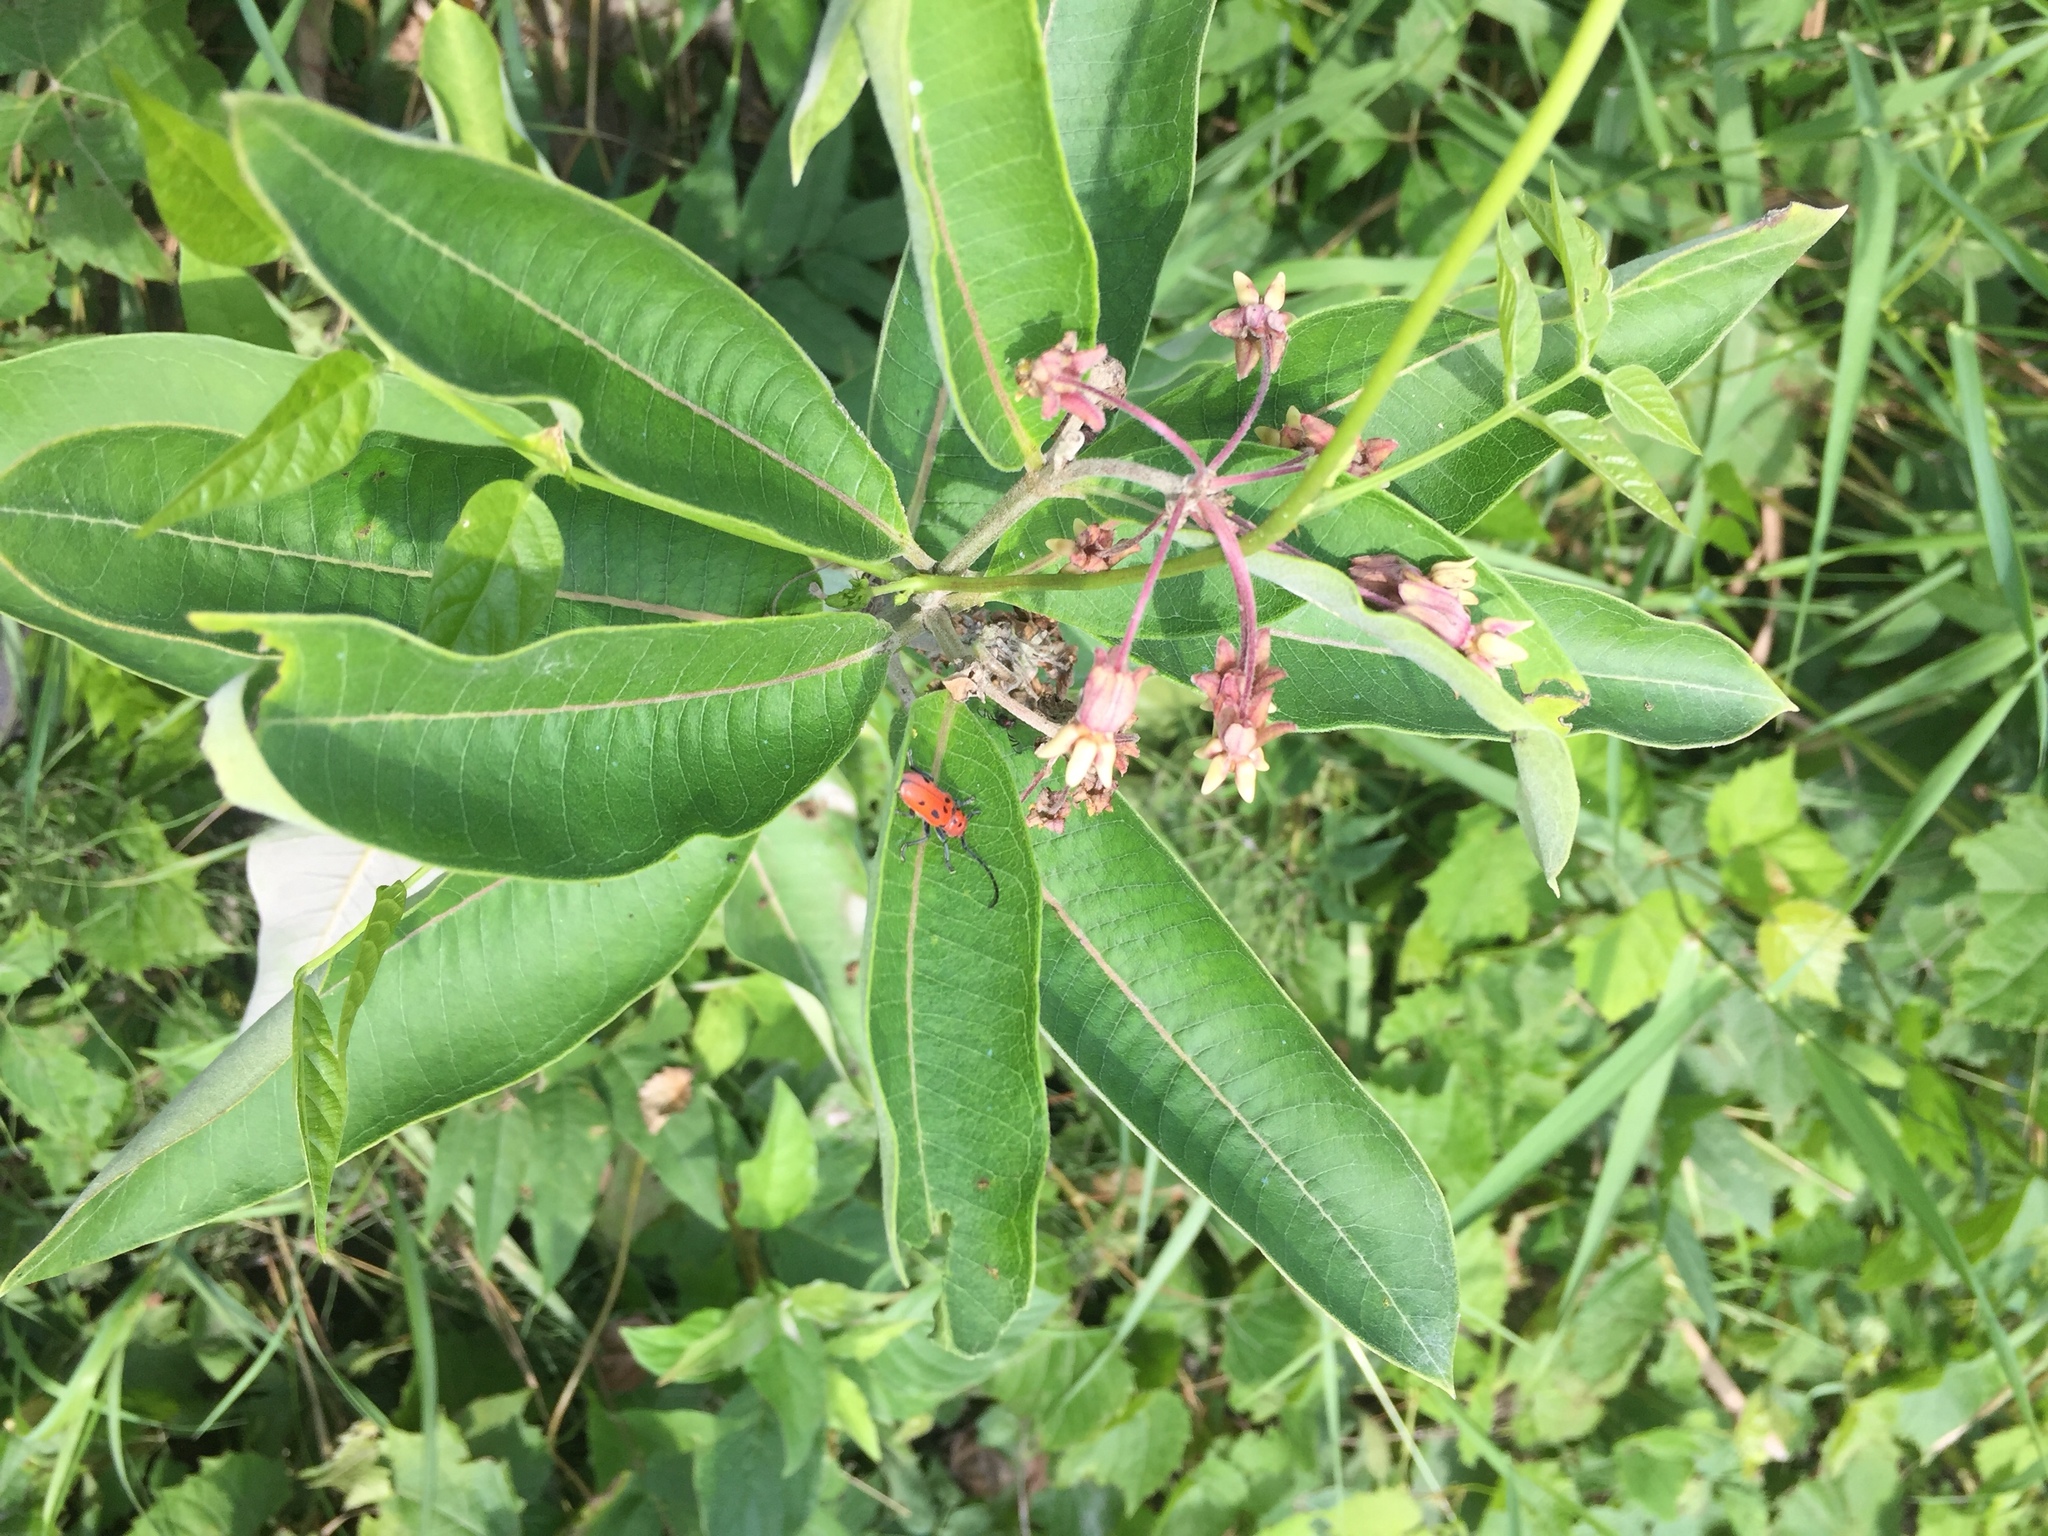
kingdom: Plantae
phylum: Tracheophyta
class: Magnoliopsida
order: Gentianales
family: Apocynaceae
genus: Asclepias
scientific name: Asclepias syriaca
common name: Common milkweed
